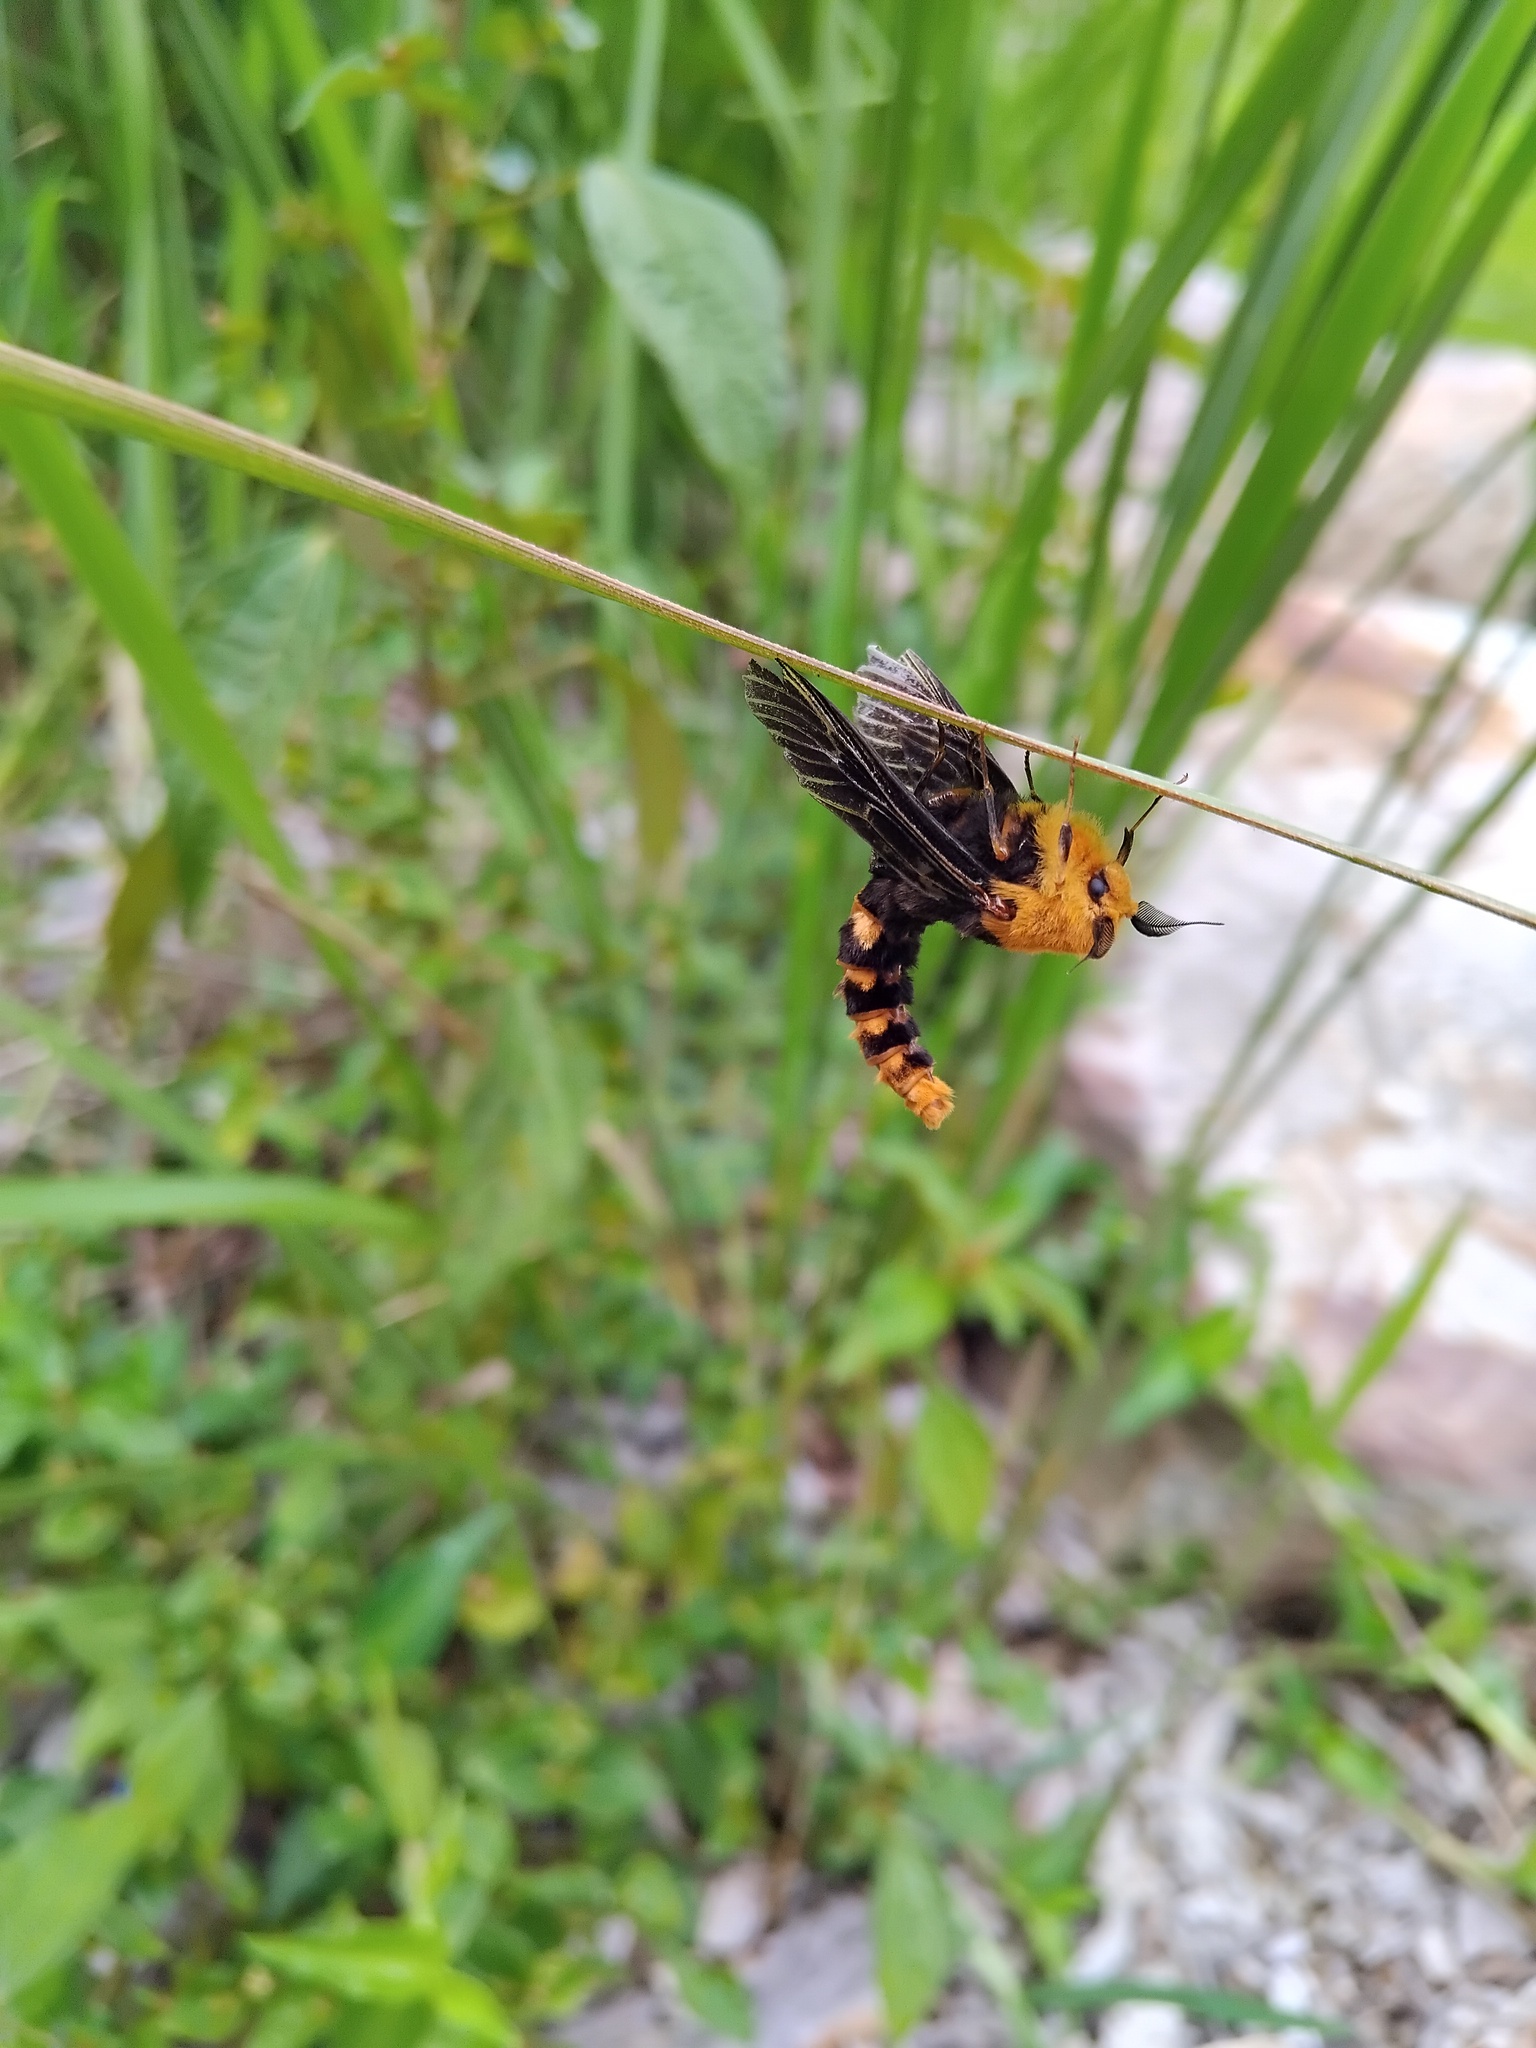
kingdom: Animalia
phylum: Arthropoda
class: Insecta
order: Lepidoptera
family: Psychidae
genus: Metura
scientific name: Metura elongatus
